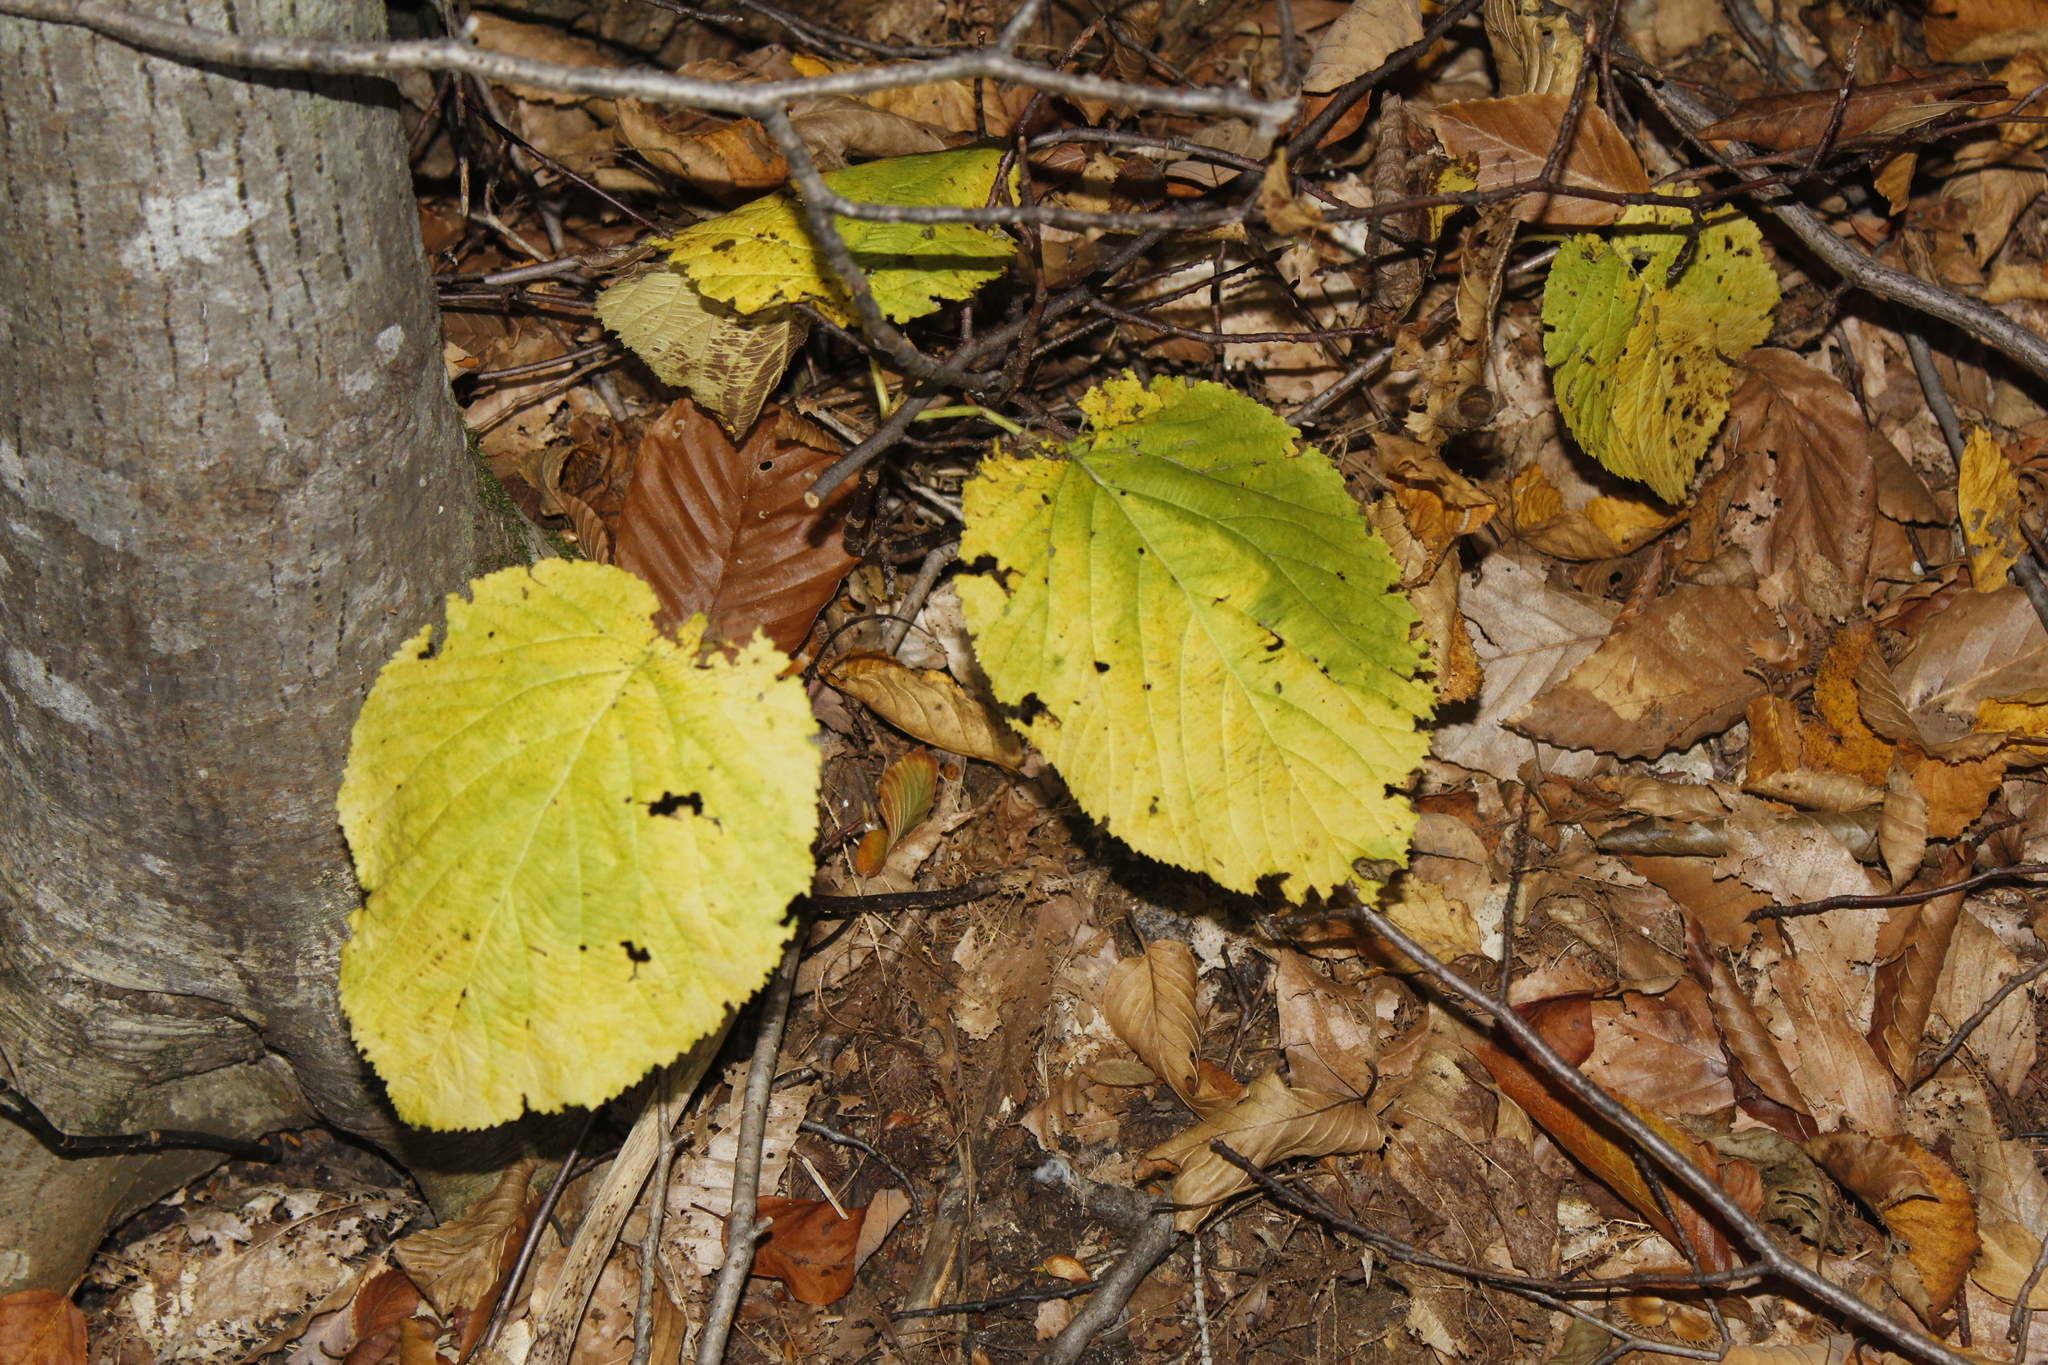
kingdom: Plantae
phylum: Tracheophyta
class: Magnoliopsida
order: Dipsacales
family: Viburnaceae
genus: Viburnum
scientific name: Viburnum lantanoides
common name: Hobblebush
